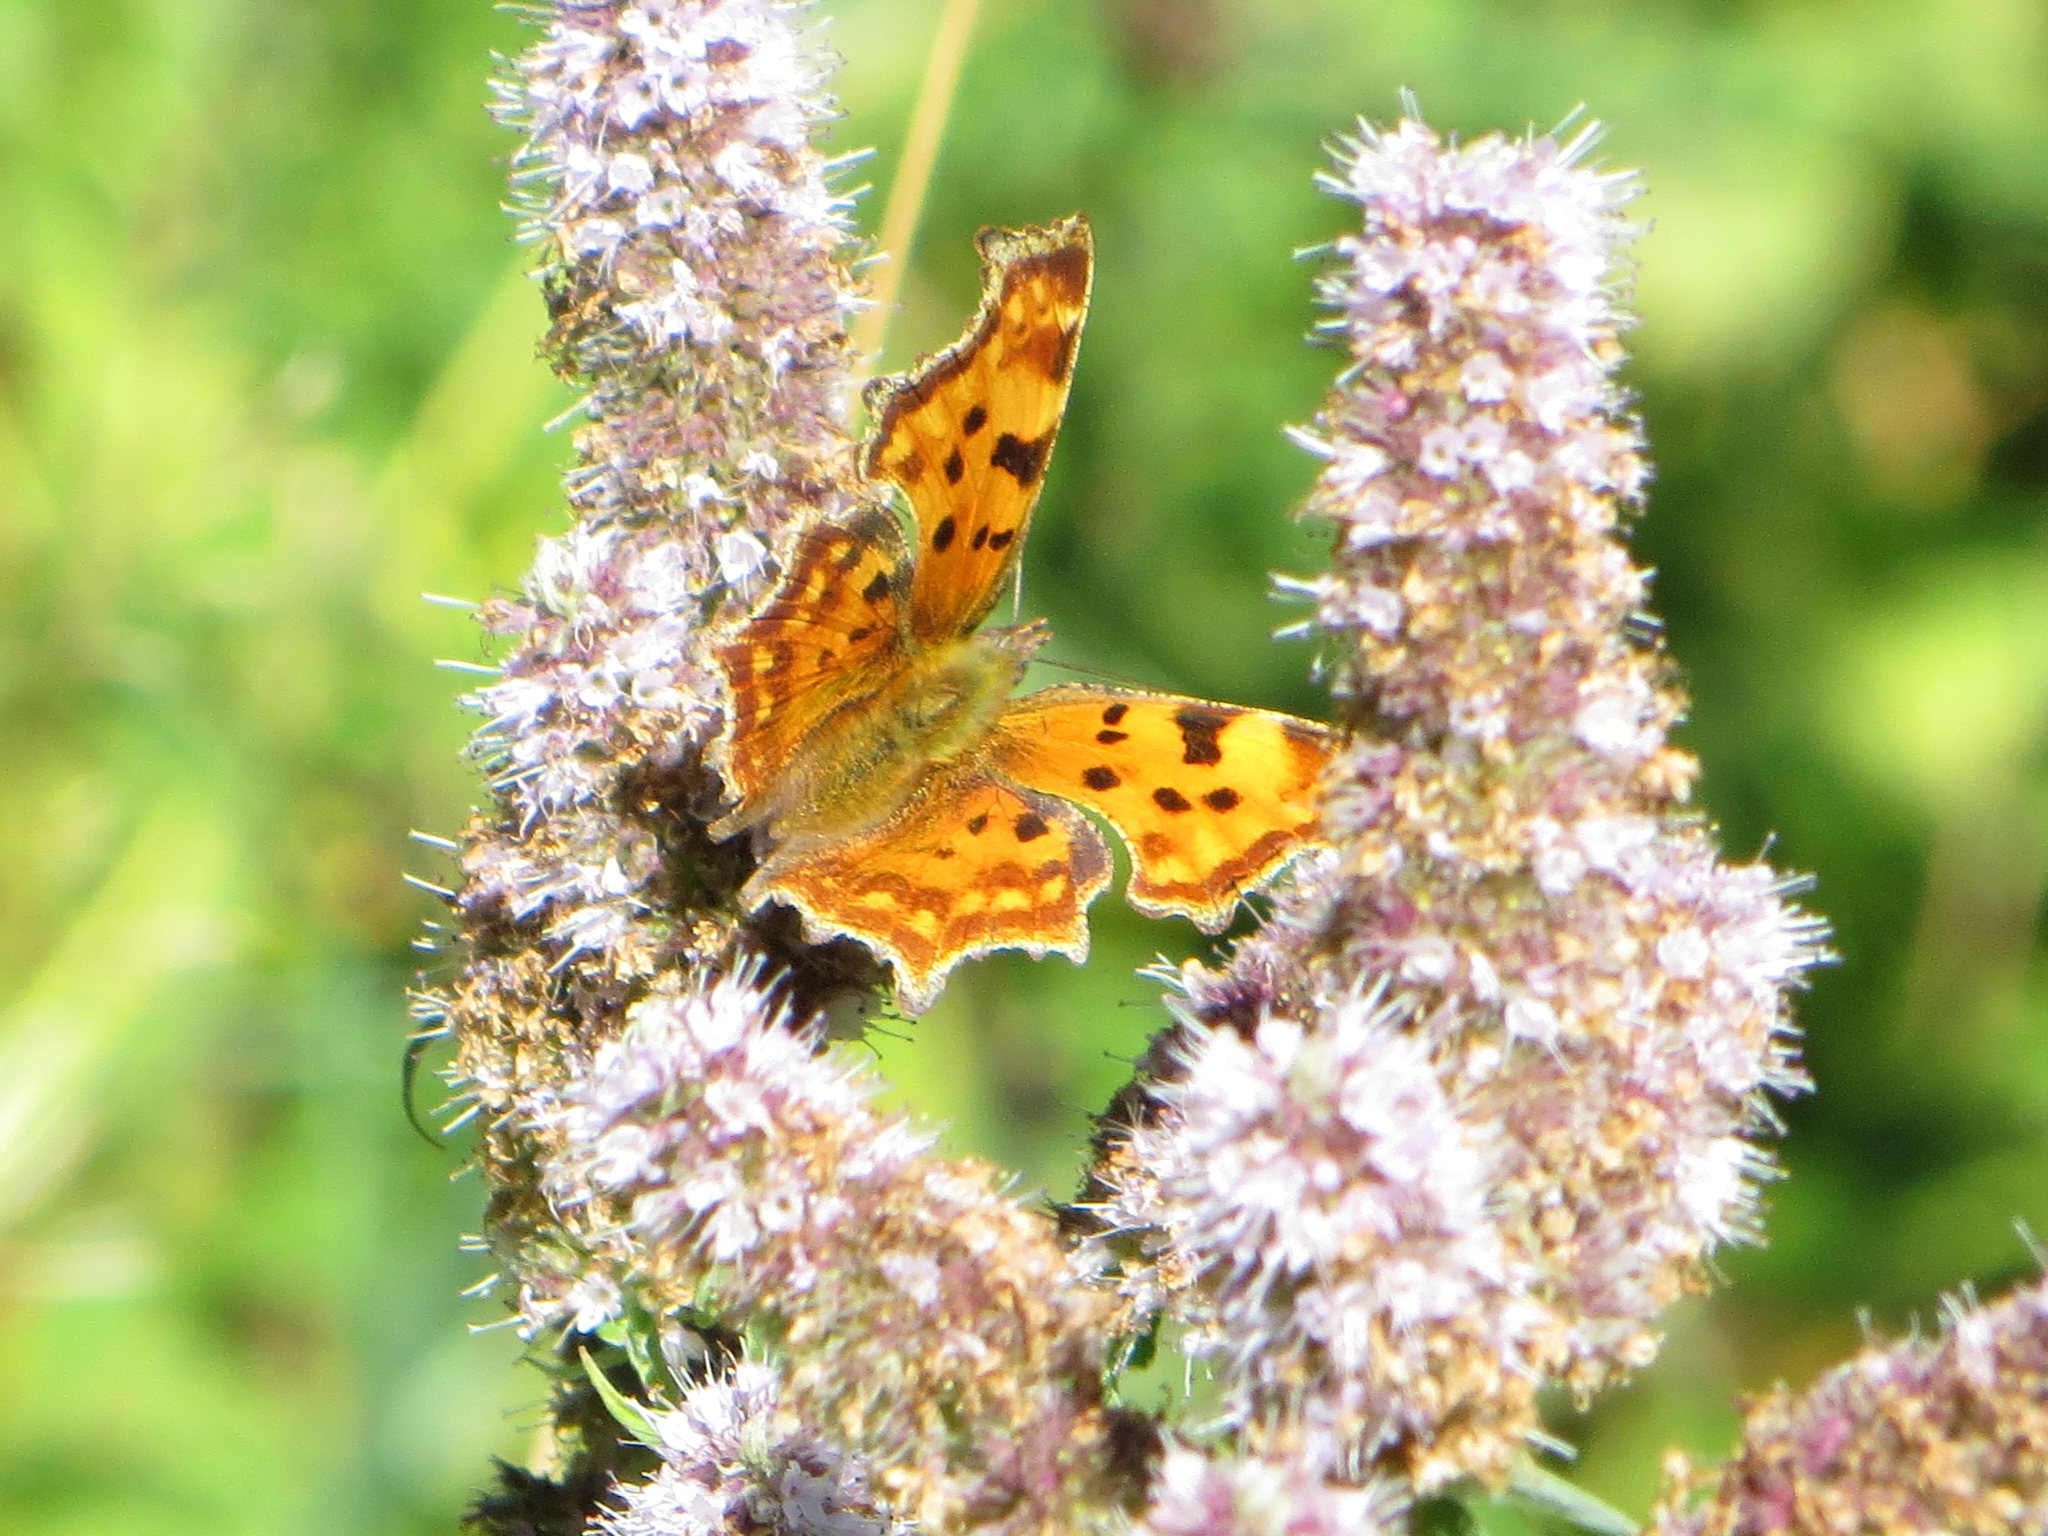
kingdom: Animalia
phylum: Arthropoda
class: Insecta
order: Lepidoptera
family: Nymphalidae
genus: Polygonia
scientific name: Polygonia c-album
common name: Comma
